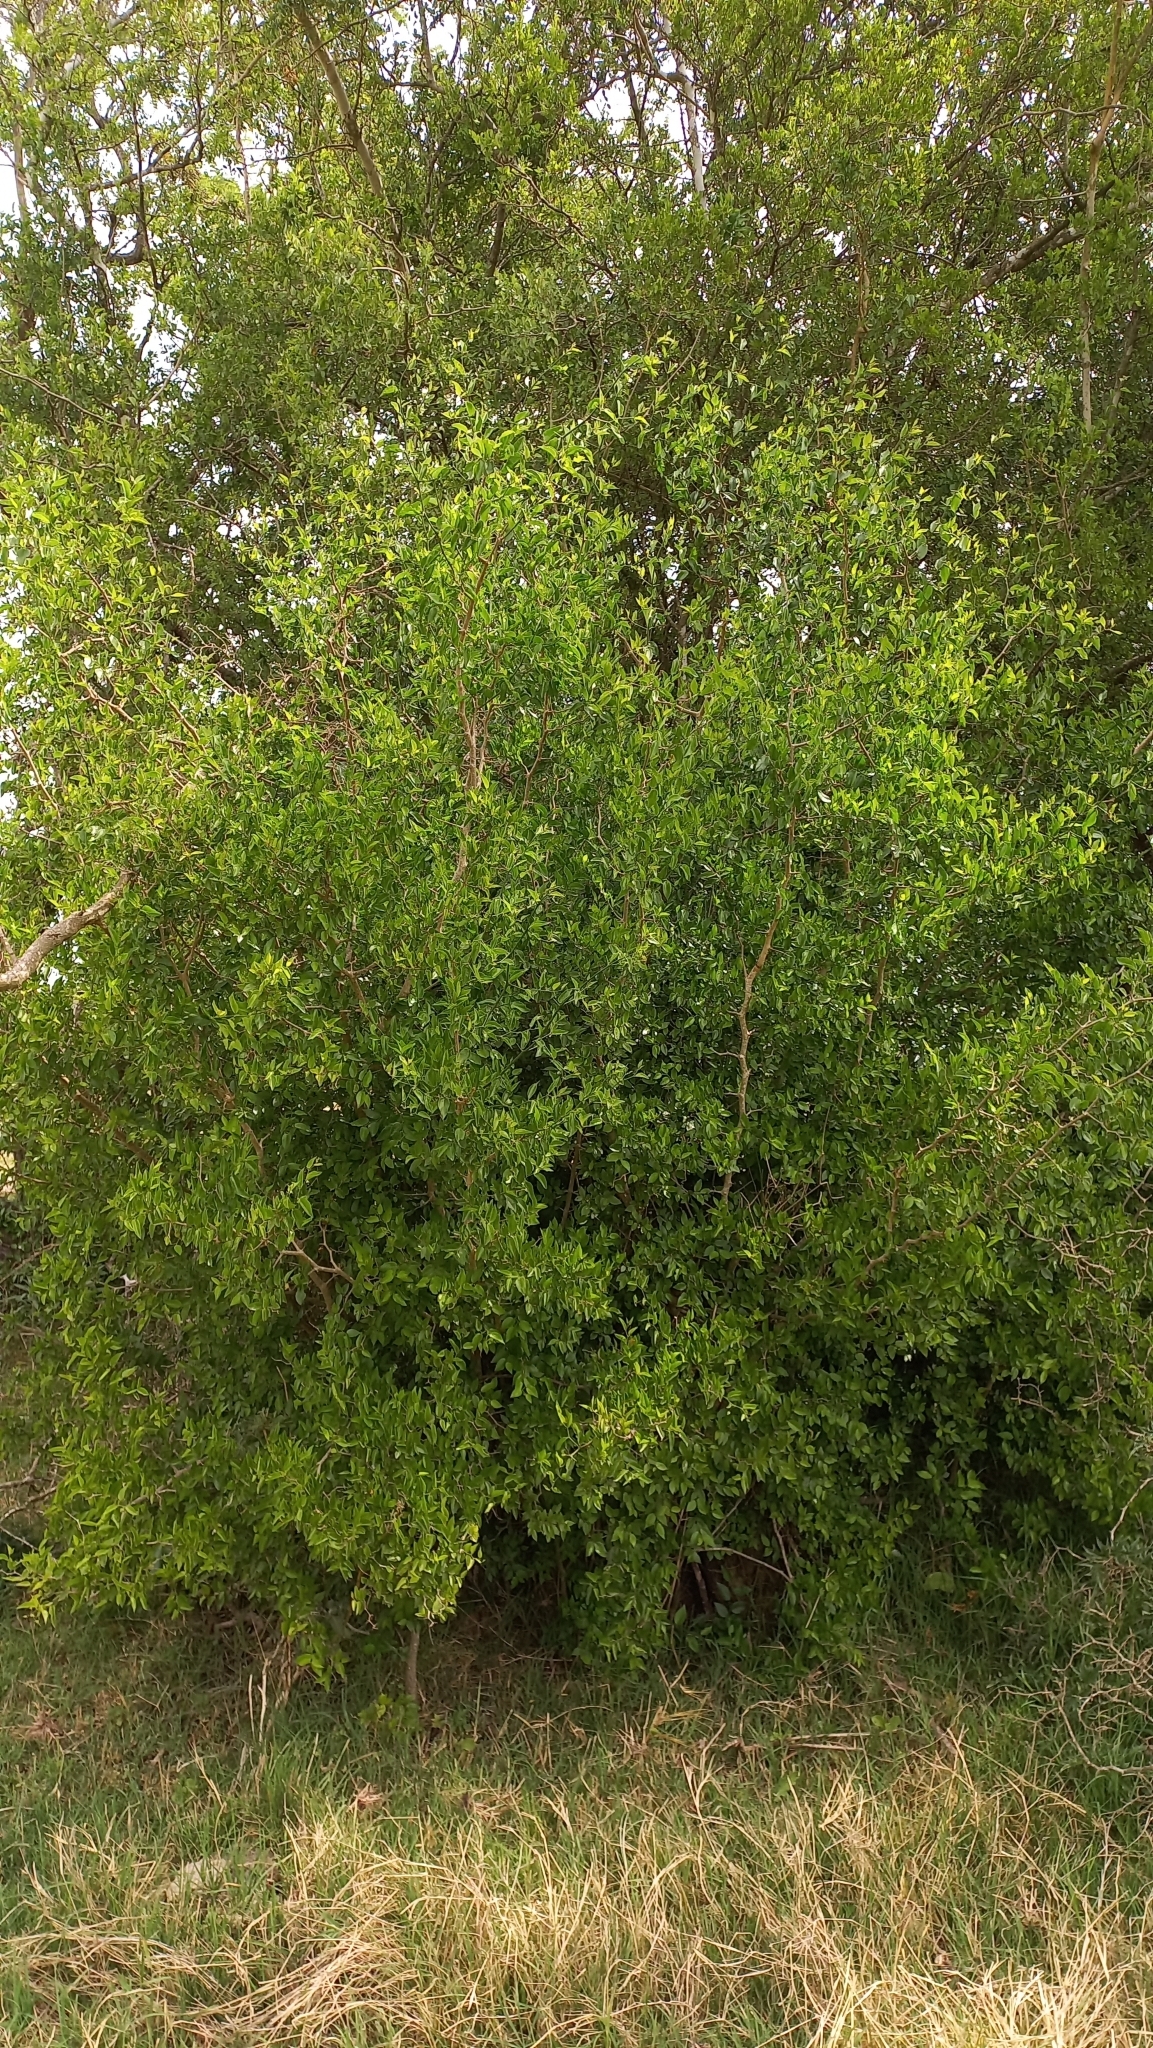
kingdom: Plantae
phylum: Tracheophyta
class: Magnoliopsida
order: Rosales
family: Cannabaceae
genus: Celtis
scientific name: Celtis tala
